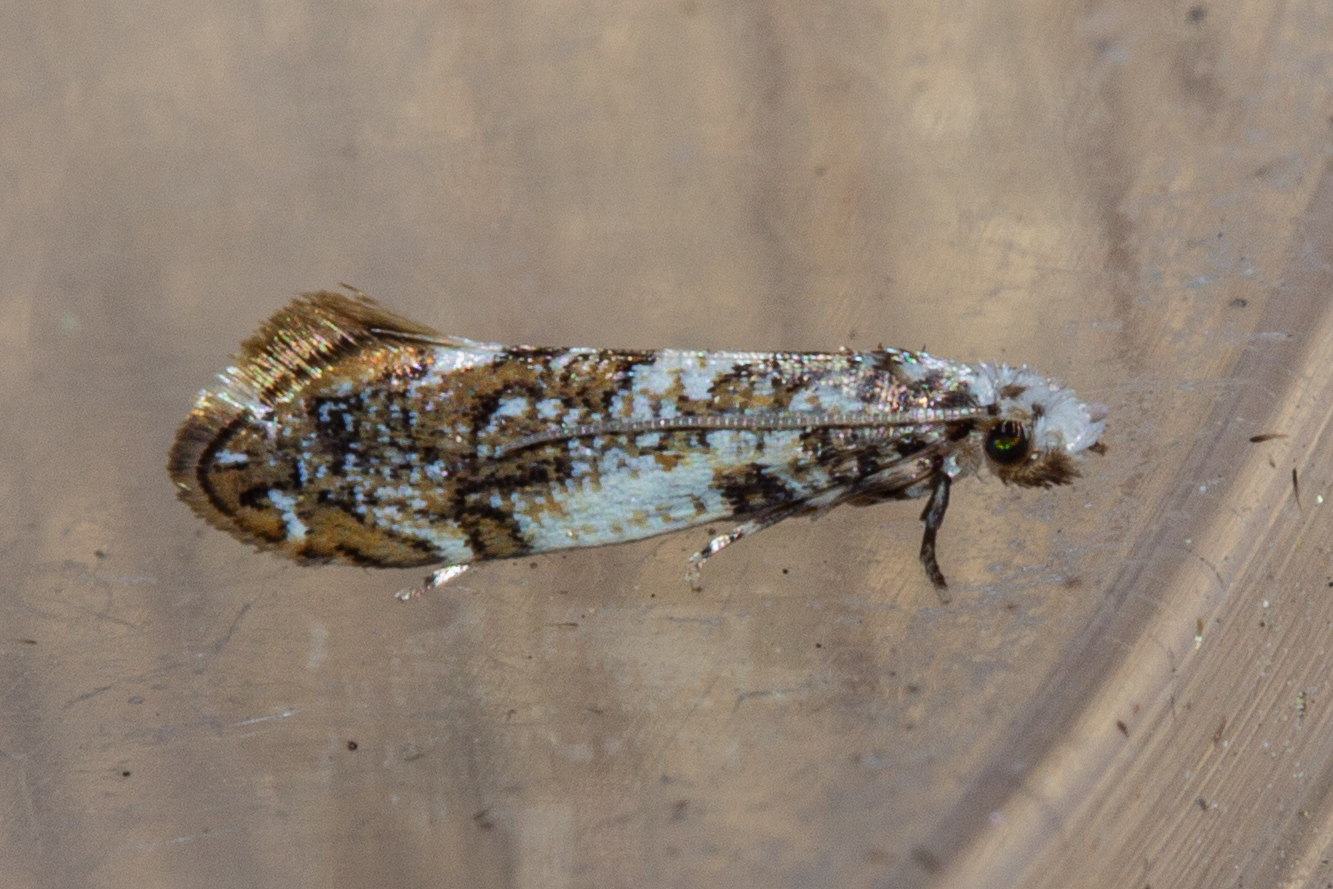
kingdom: Animalia
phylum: Arthropoda
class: Insecta
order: Lepidoptera
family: Tineidae
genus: Eschatotypa
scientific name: Eschatotypa derogatella
